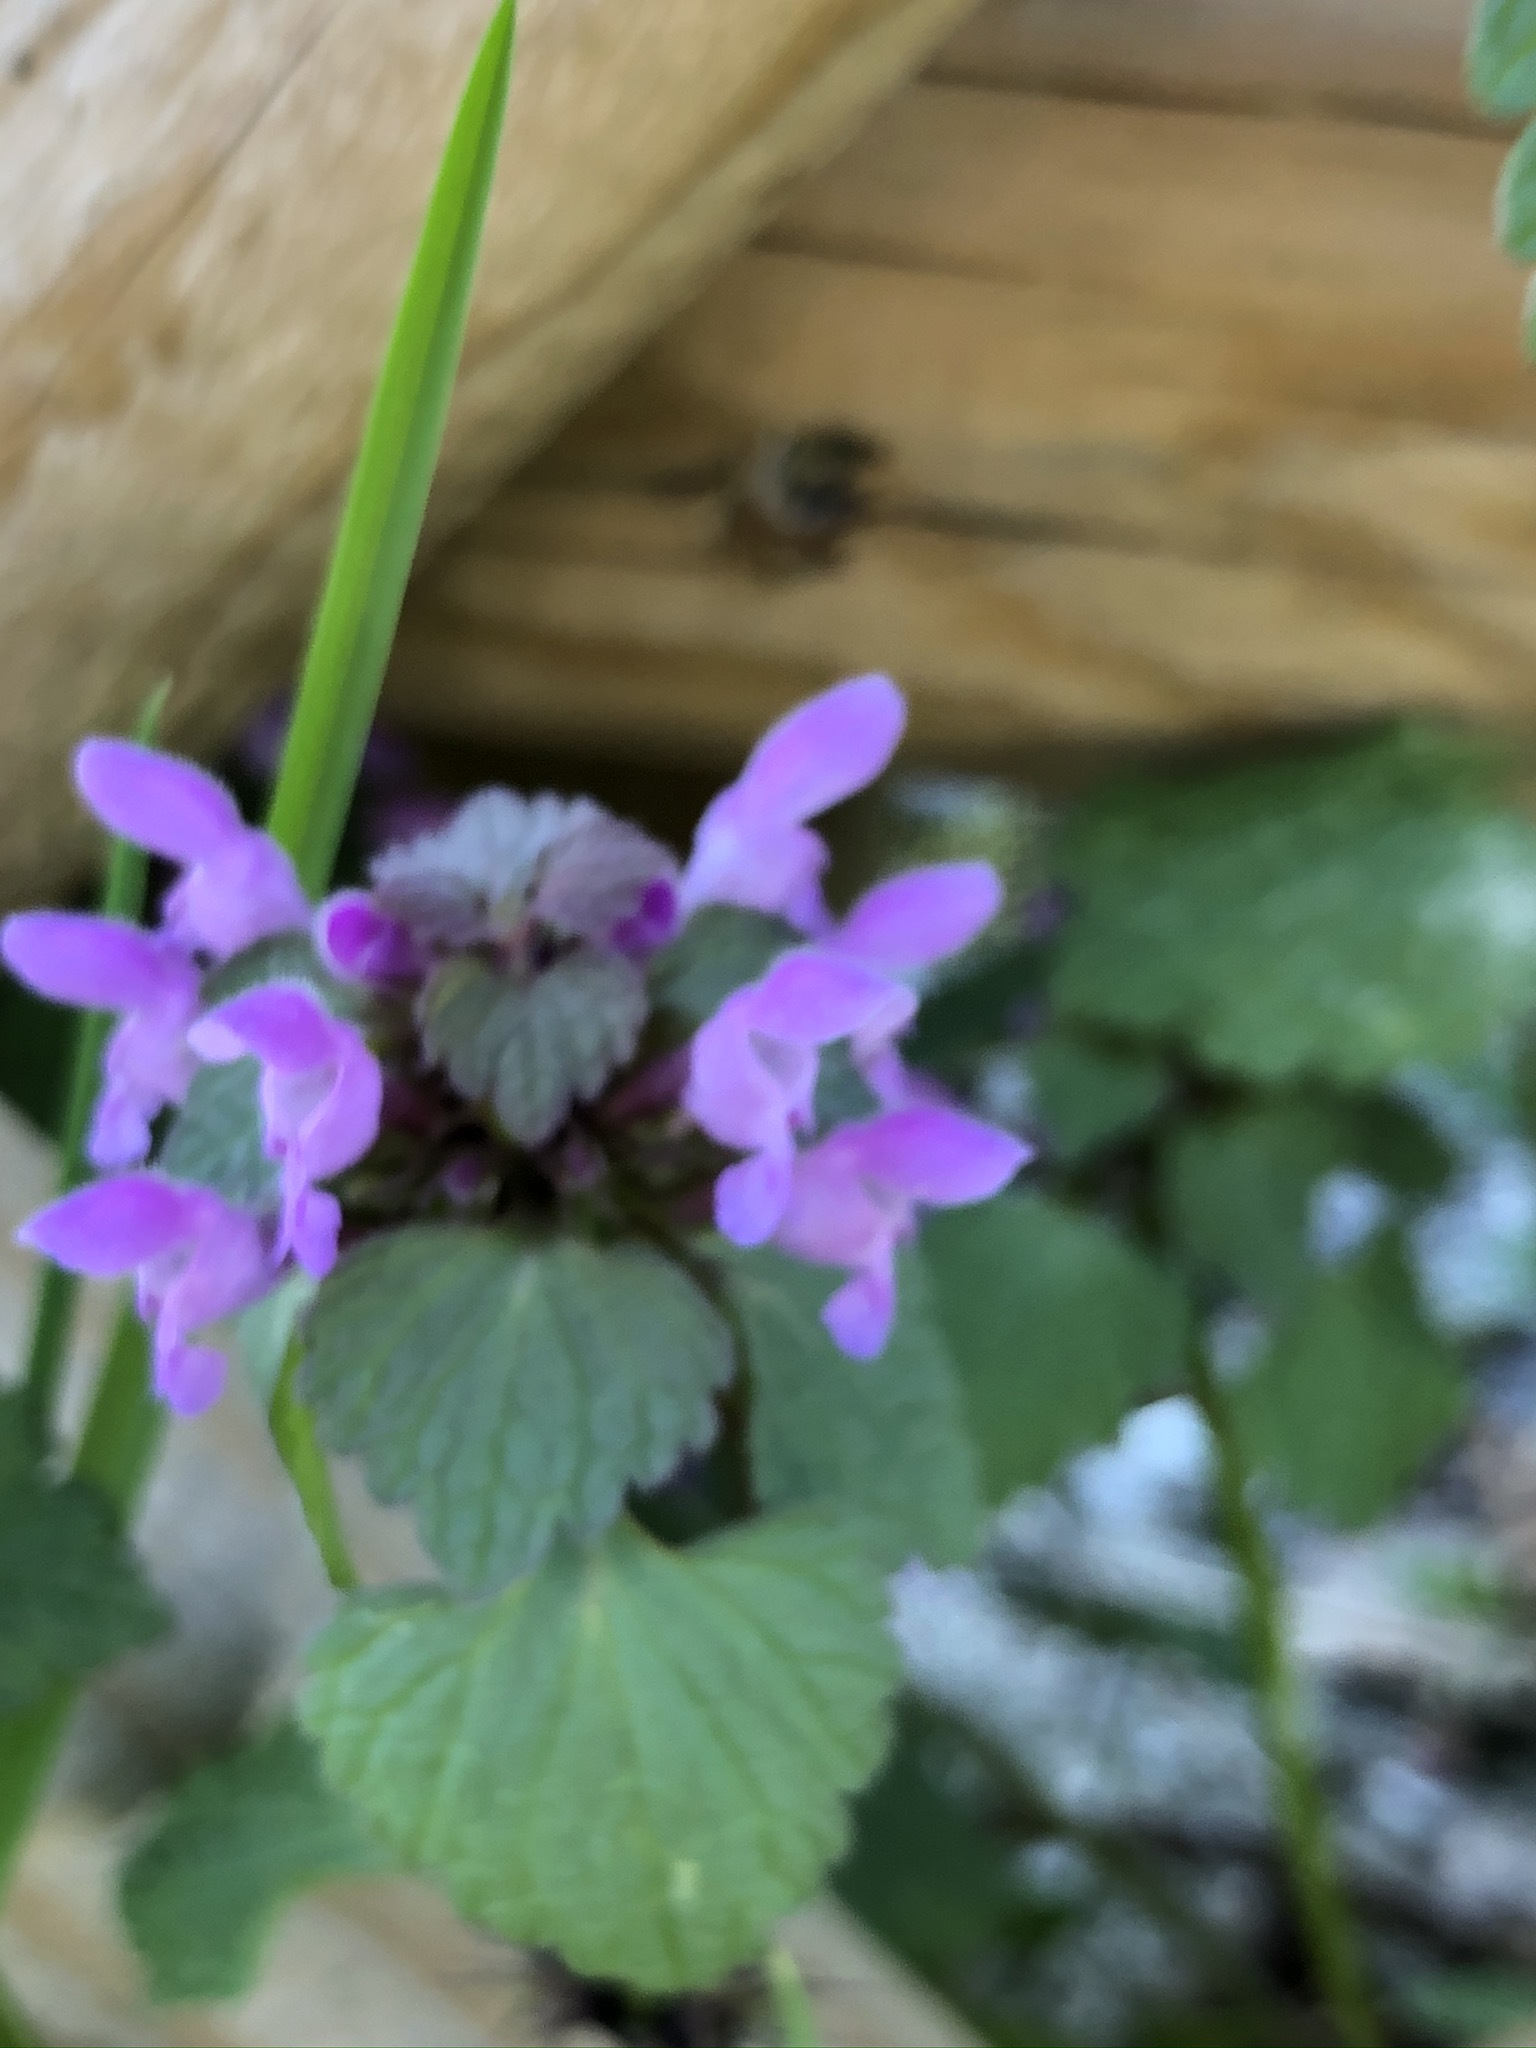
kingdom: Plantae
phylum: Tracheophyta
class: Magnoliopsida
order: Lamiales
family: Lamiaceae
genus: Lamium
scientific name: Lamium purpureum
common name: Red dead-nettle
